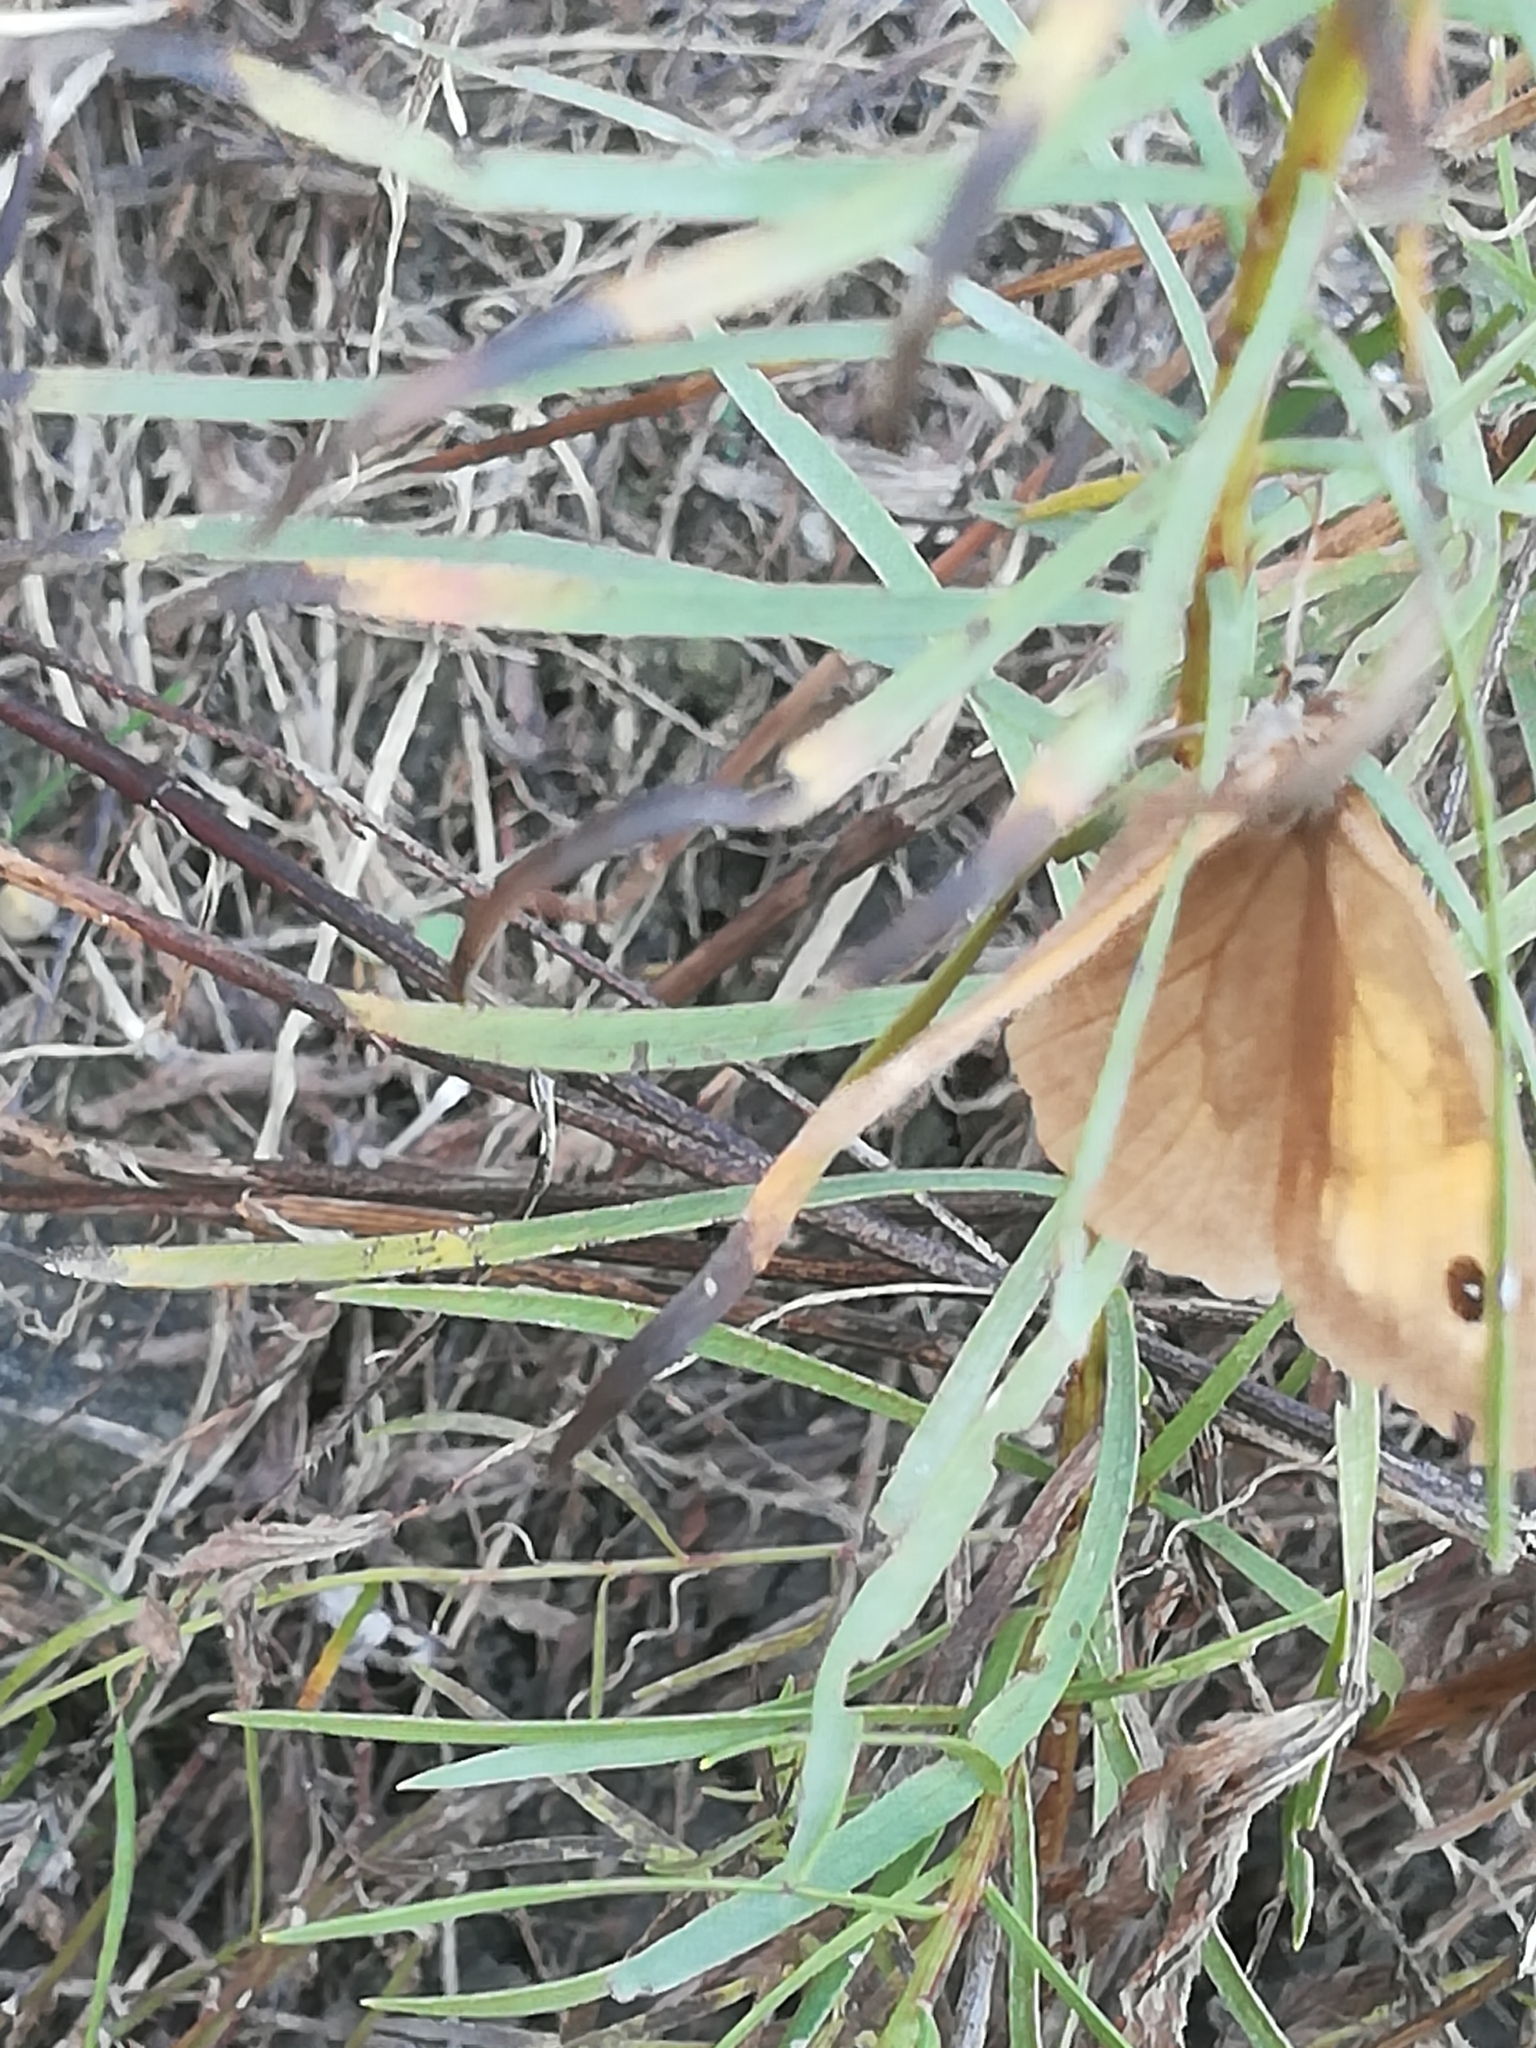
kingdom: Animalia
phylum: Arthropoda
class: Insecta
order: Lepidoptera
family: Nymphalidae
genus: Maniola
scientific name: Maniola jurtina
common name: Meadow brown
